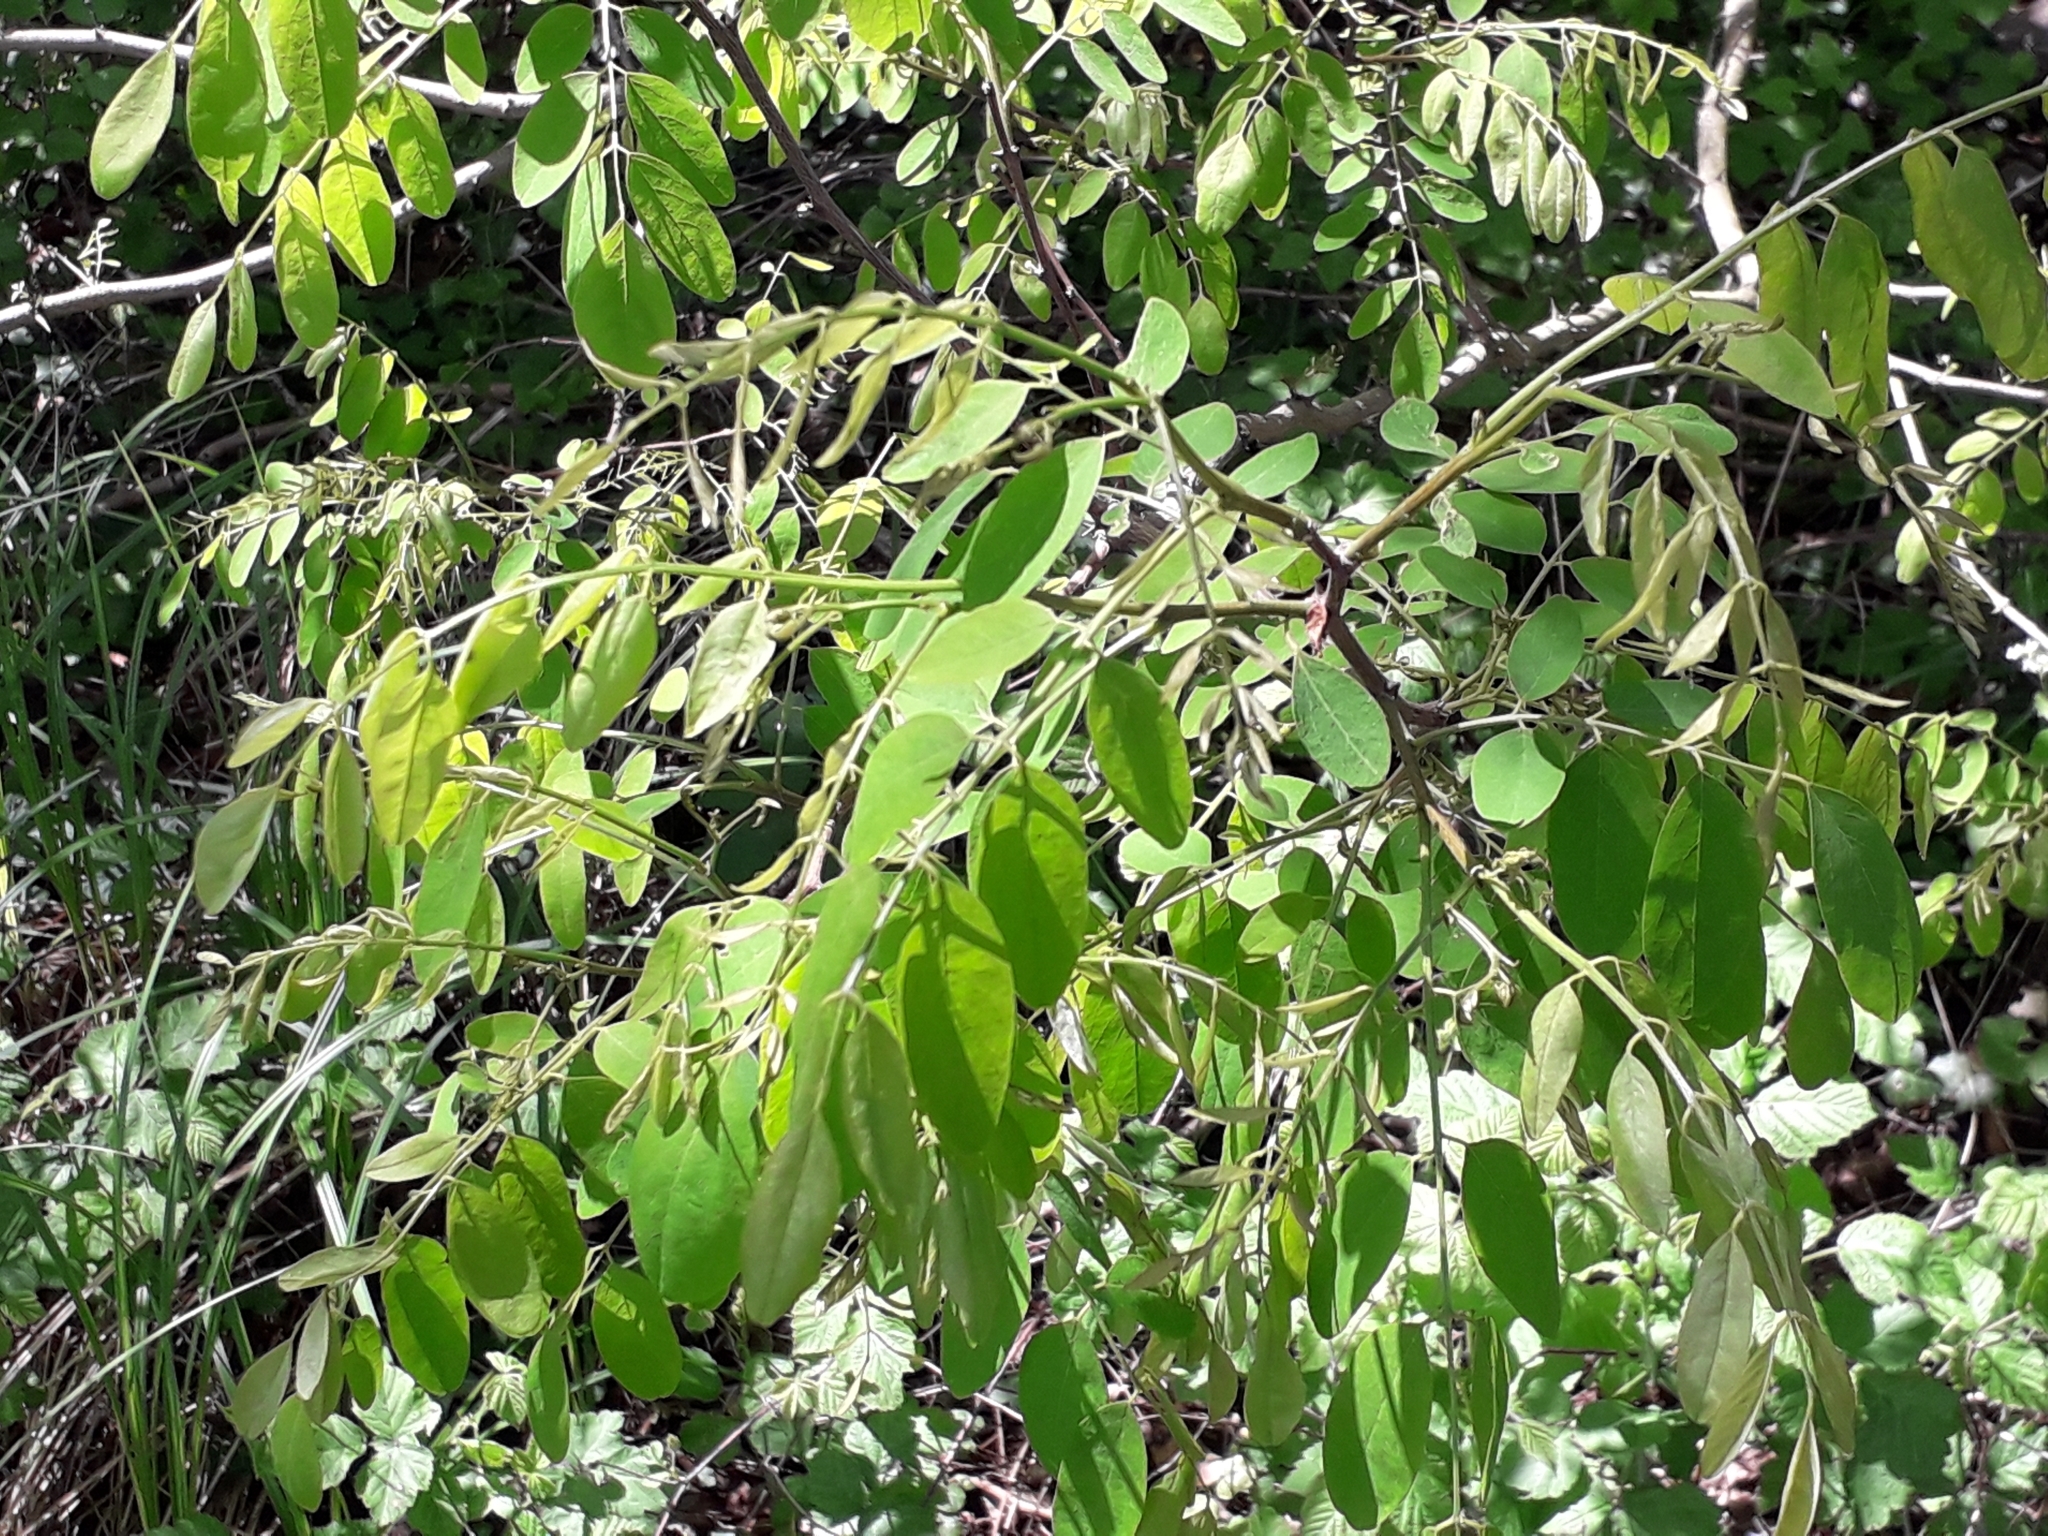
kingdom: Plantae
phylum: Tracheophyta
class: Magnoliopsida
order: Fabales
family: Fabaceae
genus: Robinia
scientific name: Robinia pseudoacacia
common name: Black locust
